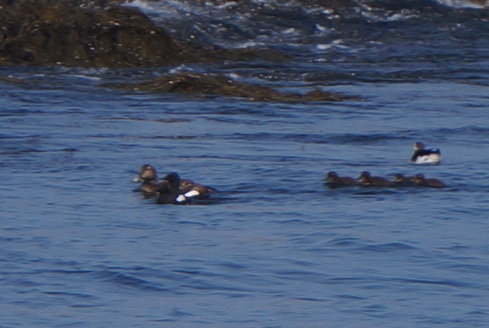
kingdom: Animalia
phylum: Chordata
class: Aves
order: Anseriformes
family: Anatidae
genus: Somateria
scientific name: Somateria mollissima
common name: Common eider
